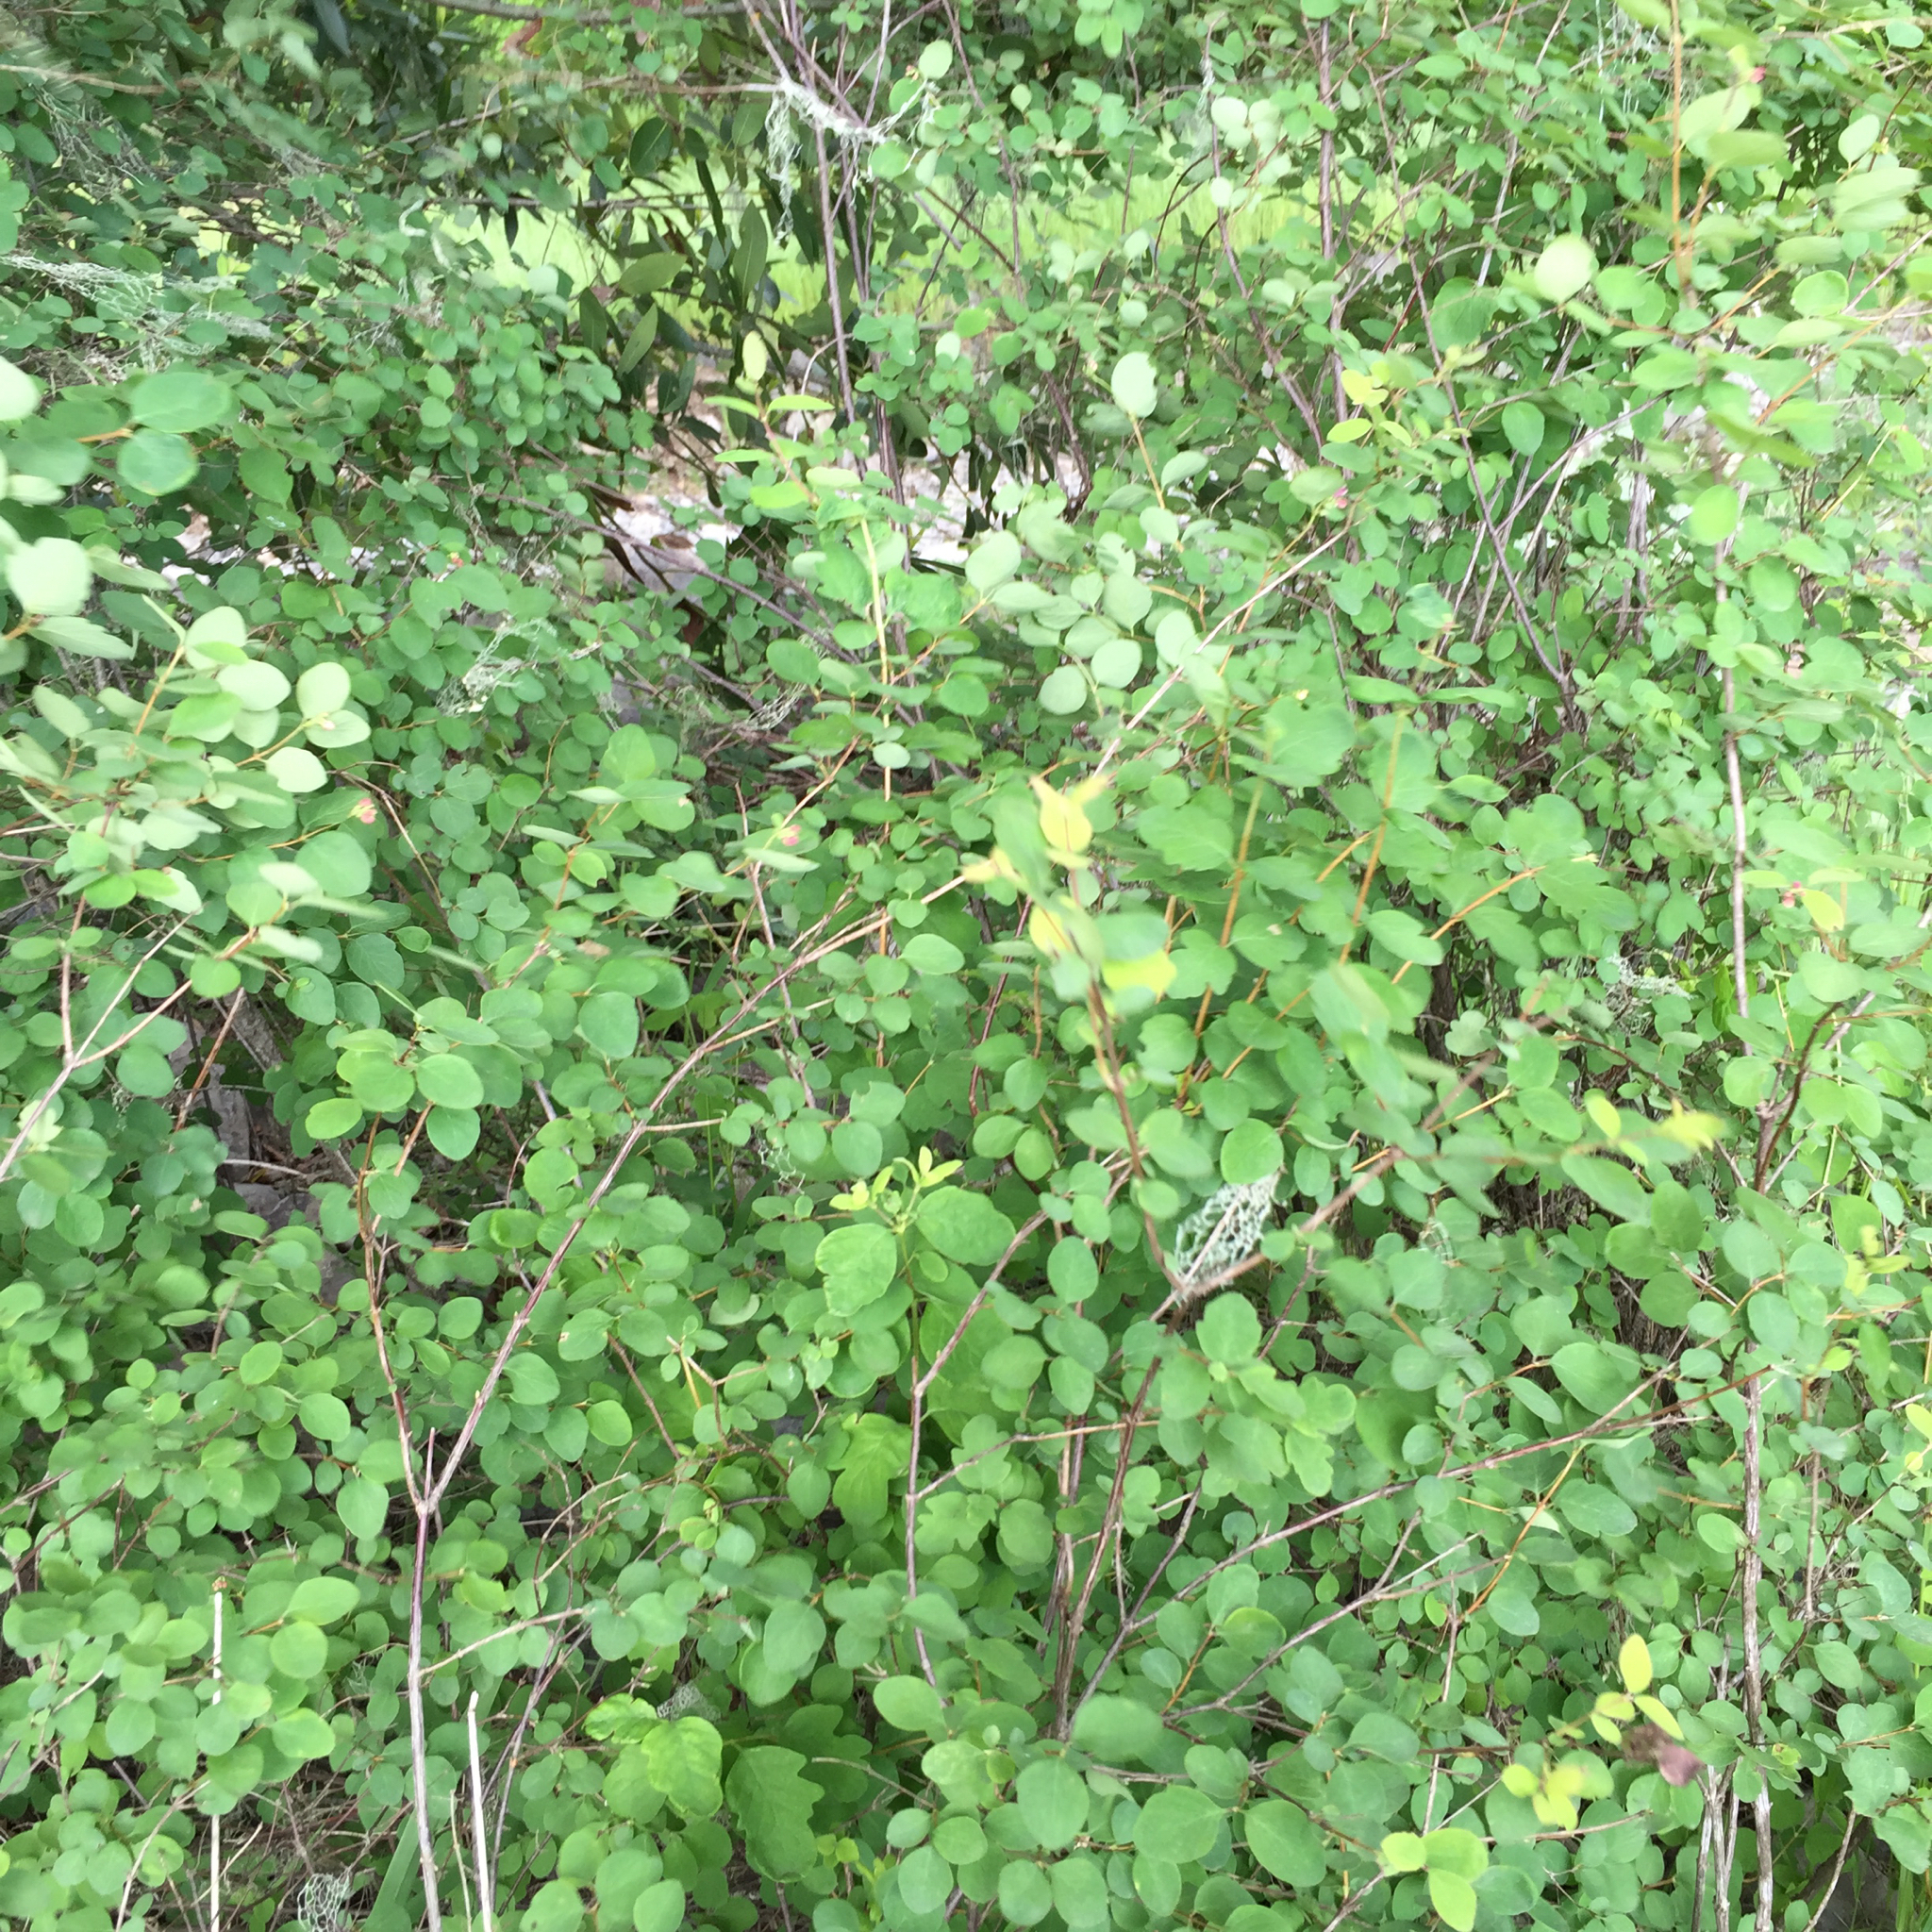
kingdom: Plantae
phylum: Tracheophyta
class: Magnoliopsida
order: Dipsacales
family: Caprifoliaceae
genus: Symphoricarpos
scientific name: Symphoricarpos albus
